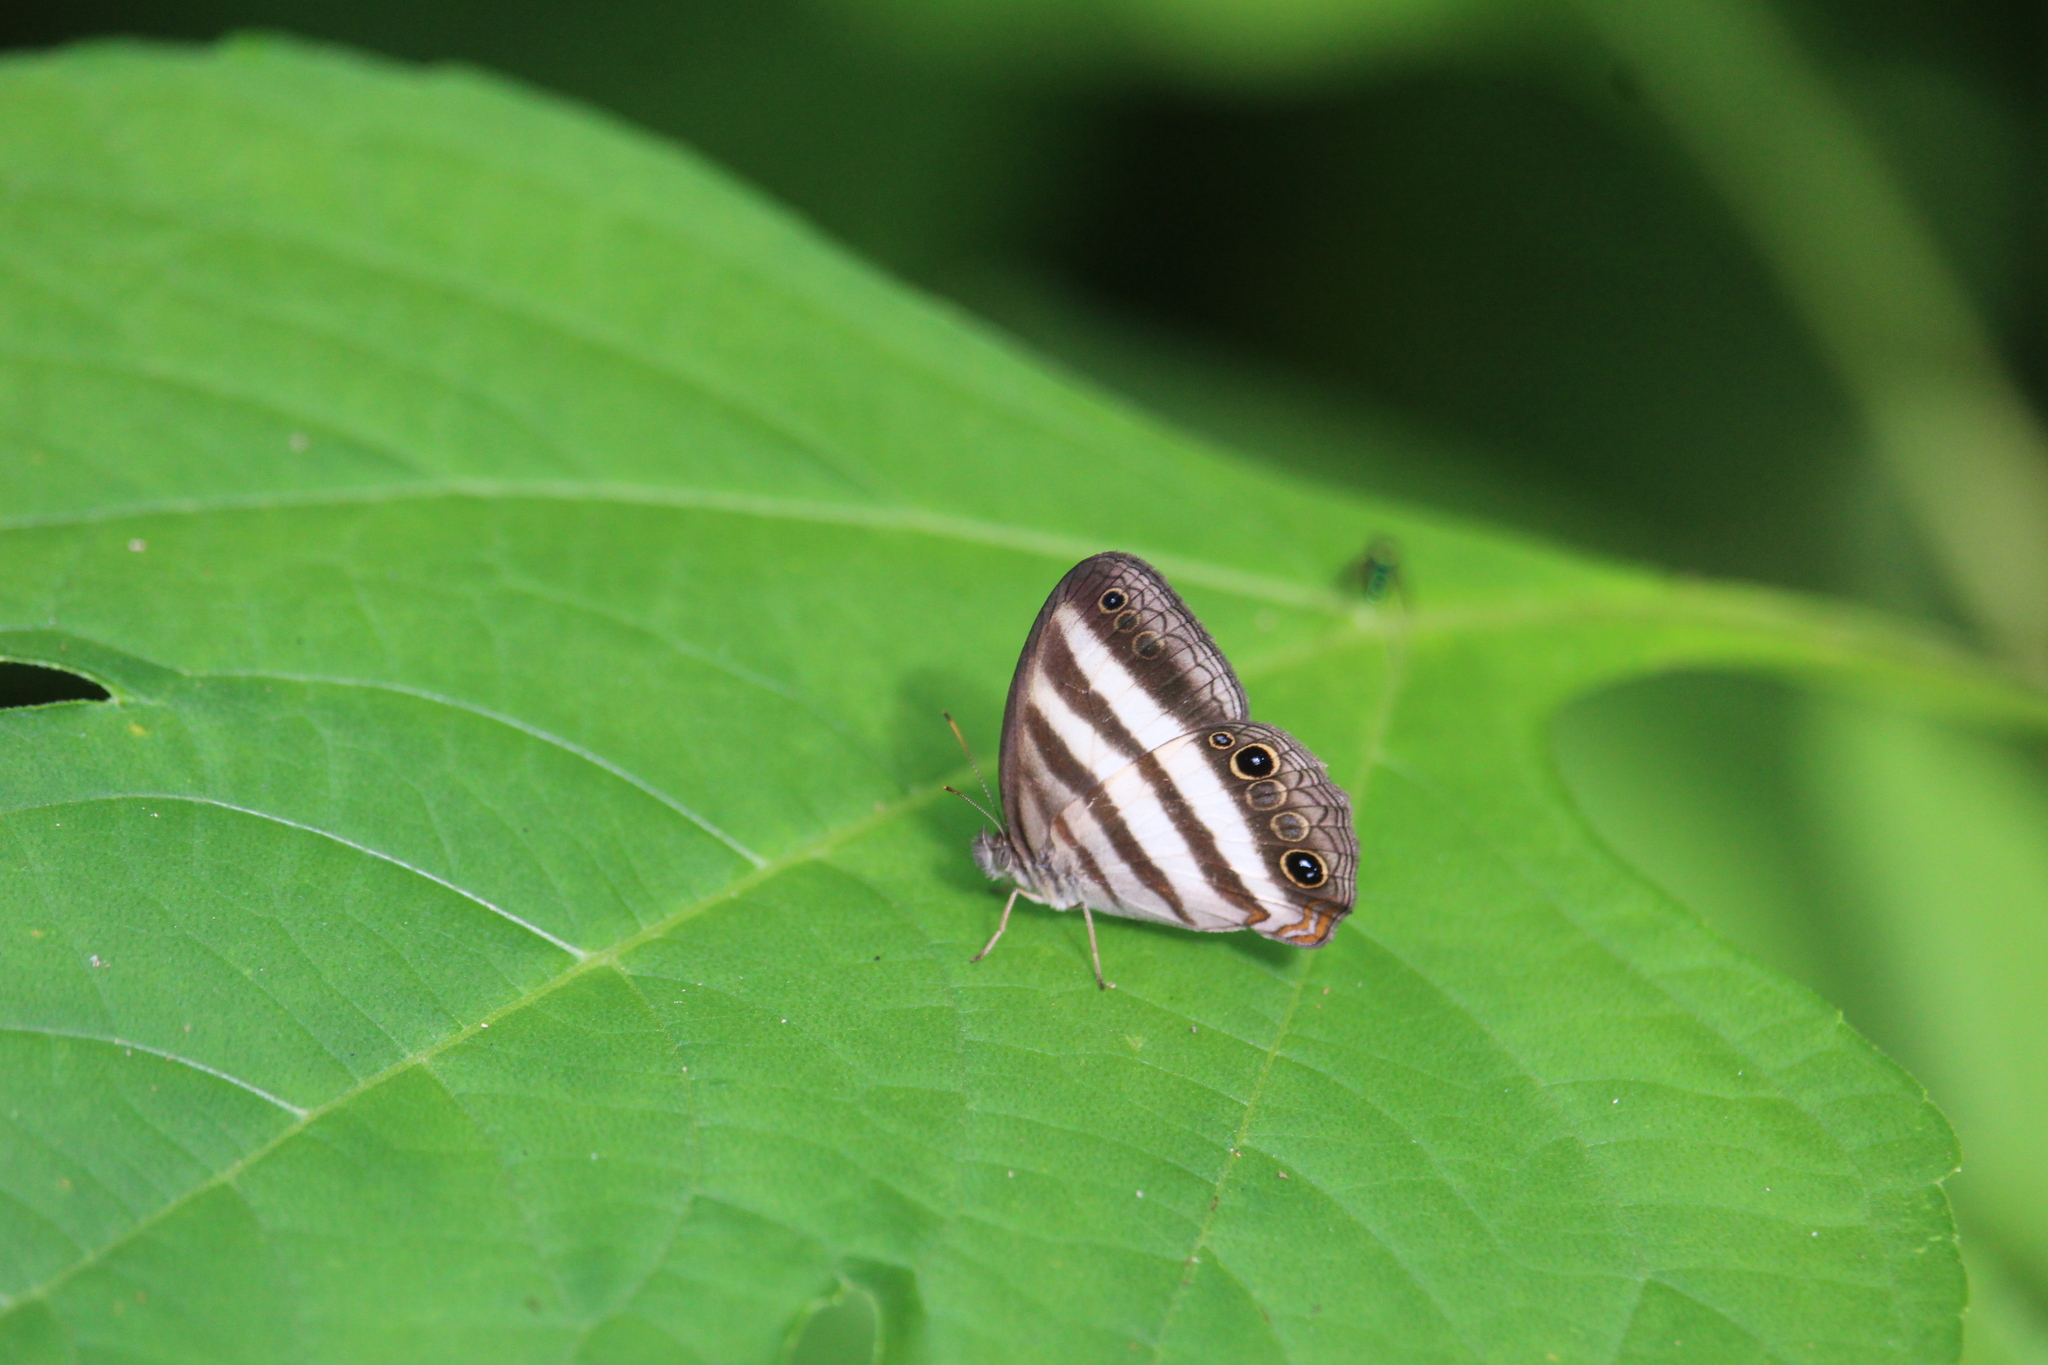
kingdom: Animalia
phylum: Arthropoda
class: Insecta
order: Lepidoptera
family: Nymphalidae
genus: Pareuptychia
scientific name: Pareuptychia hesione
